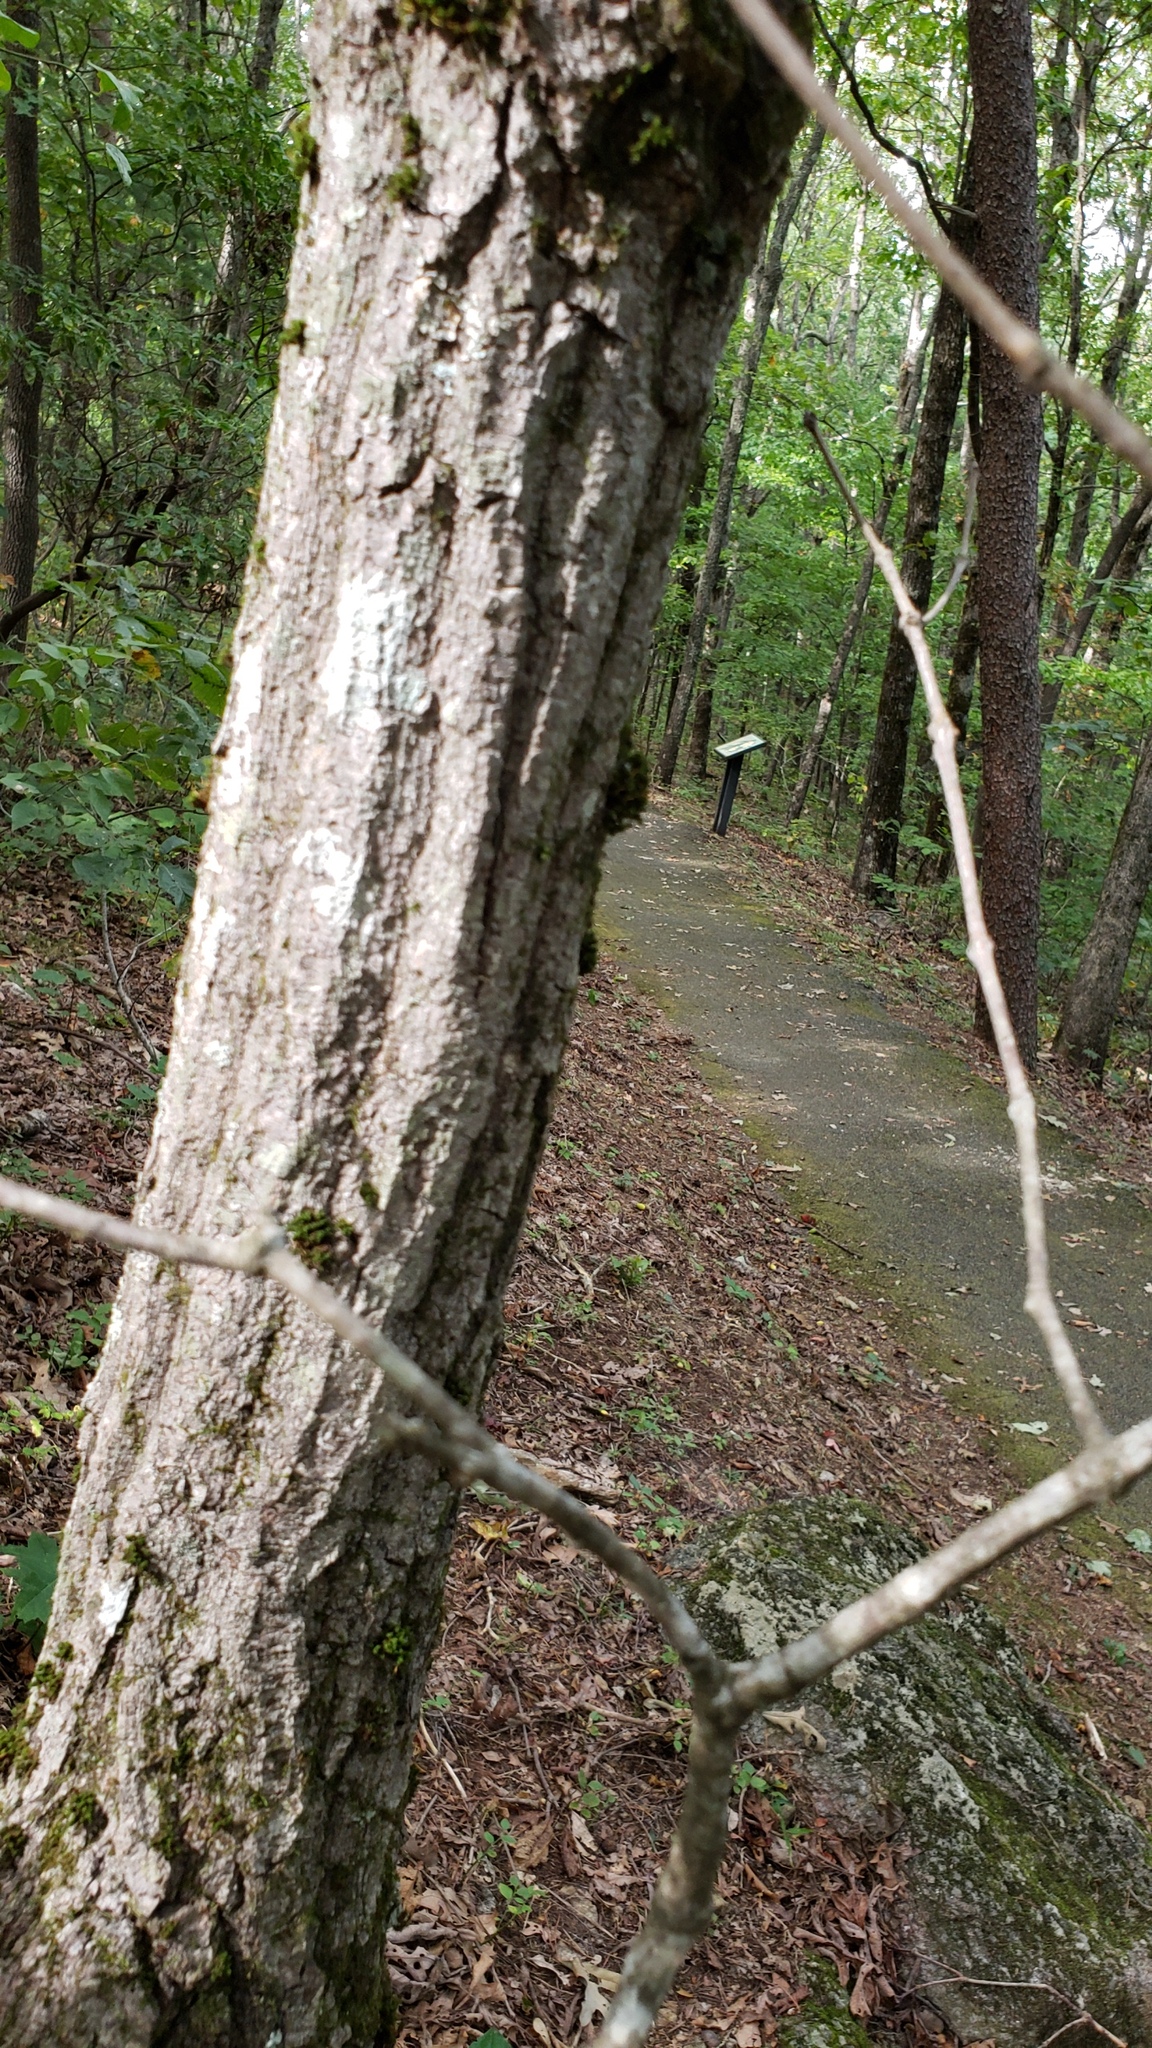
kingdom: Plantae
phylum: Tracheophyta
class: Magnoliopsida
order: Fagales
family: Fagaceae
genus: Quercus
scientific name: Quercus montana
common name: Chestnut oak
